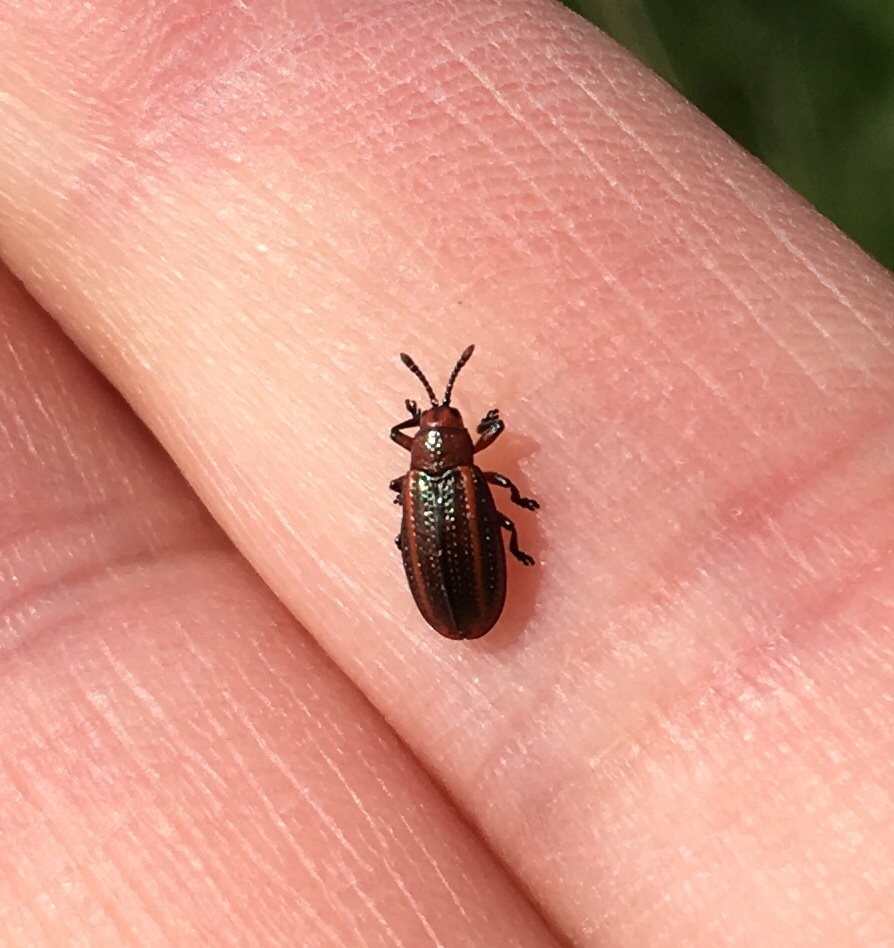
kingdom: Animalia
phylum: Arthropoda
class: Insecta
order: Coleoptera
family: Chrysomelidae
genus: Microrhopala
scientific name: Microrhopala vittata
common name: Goldenrod leaf miner beetle
